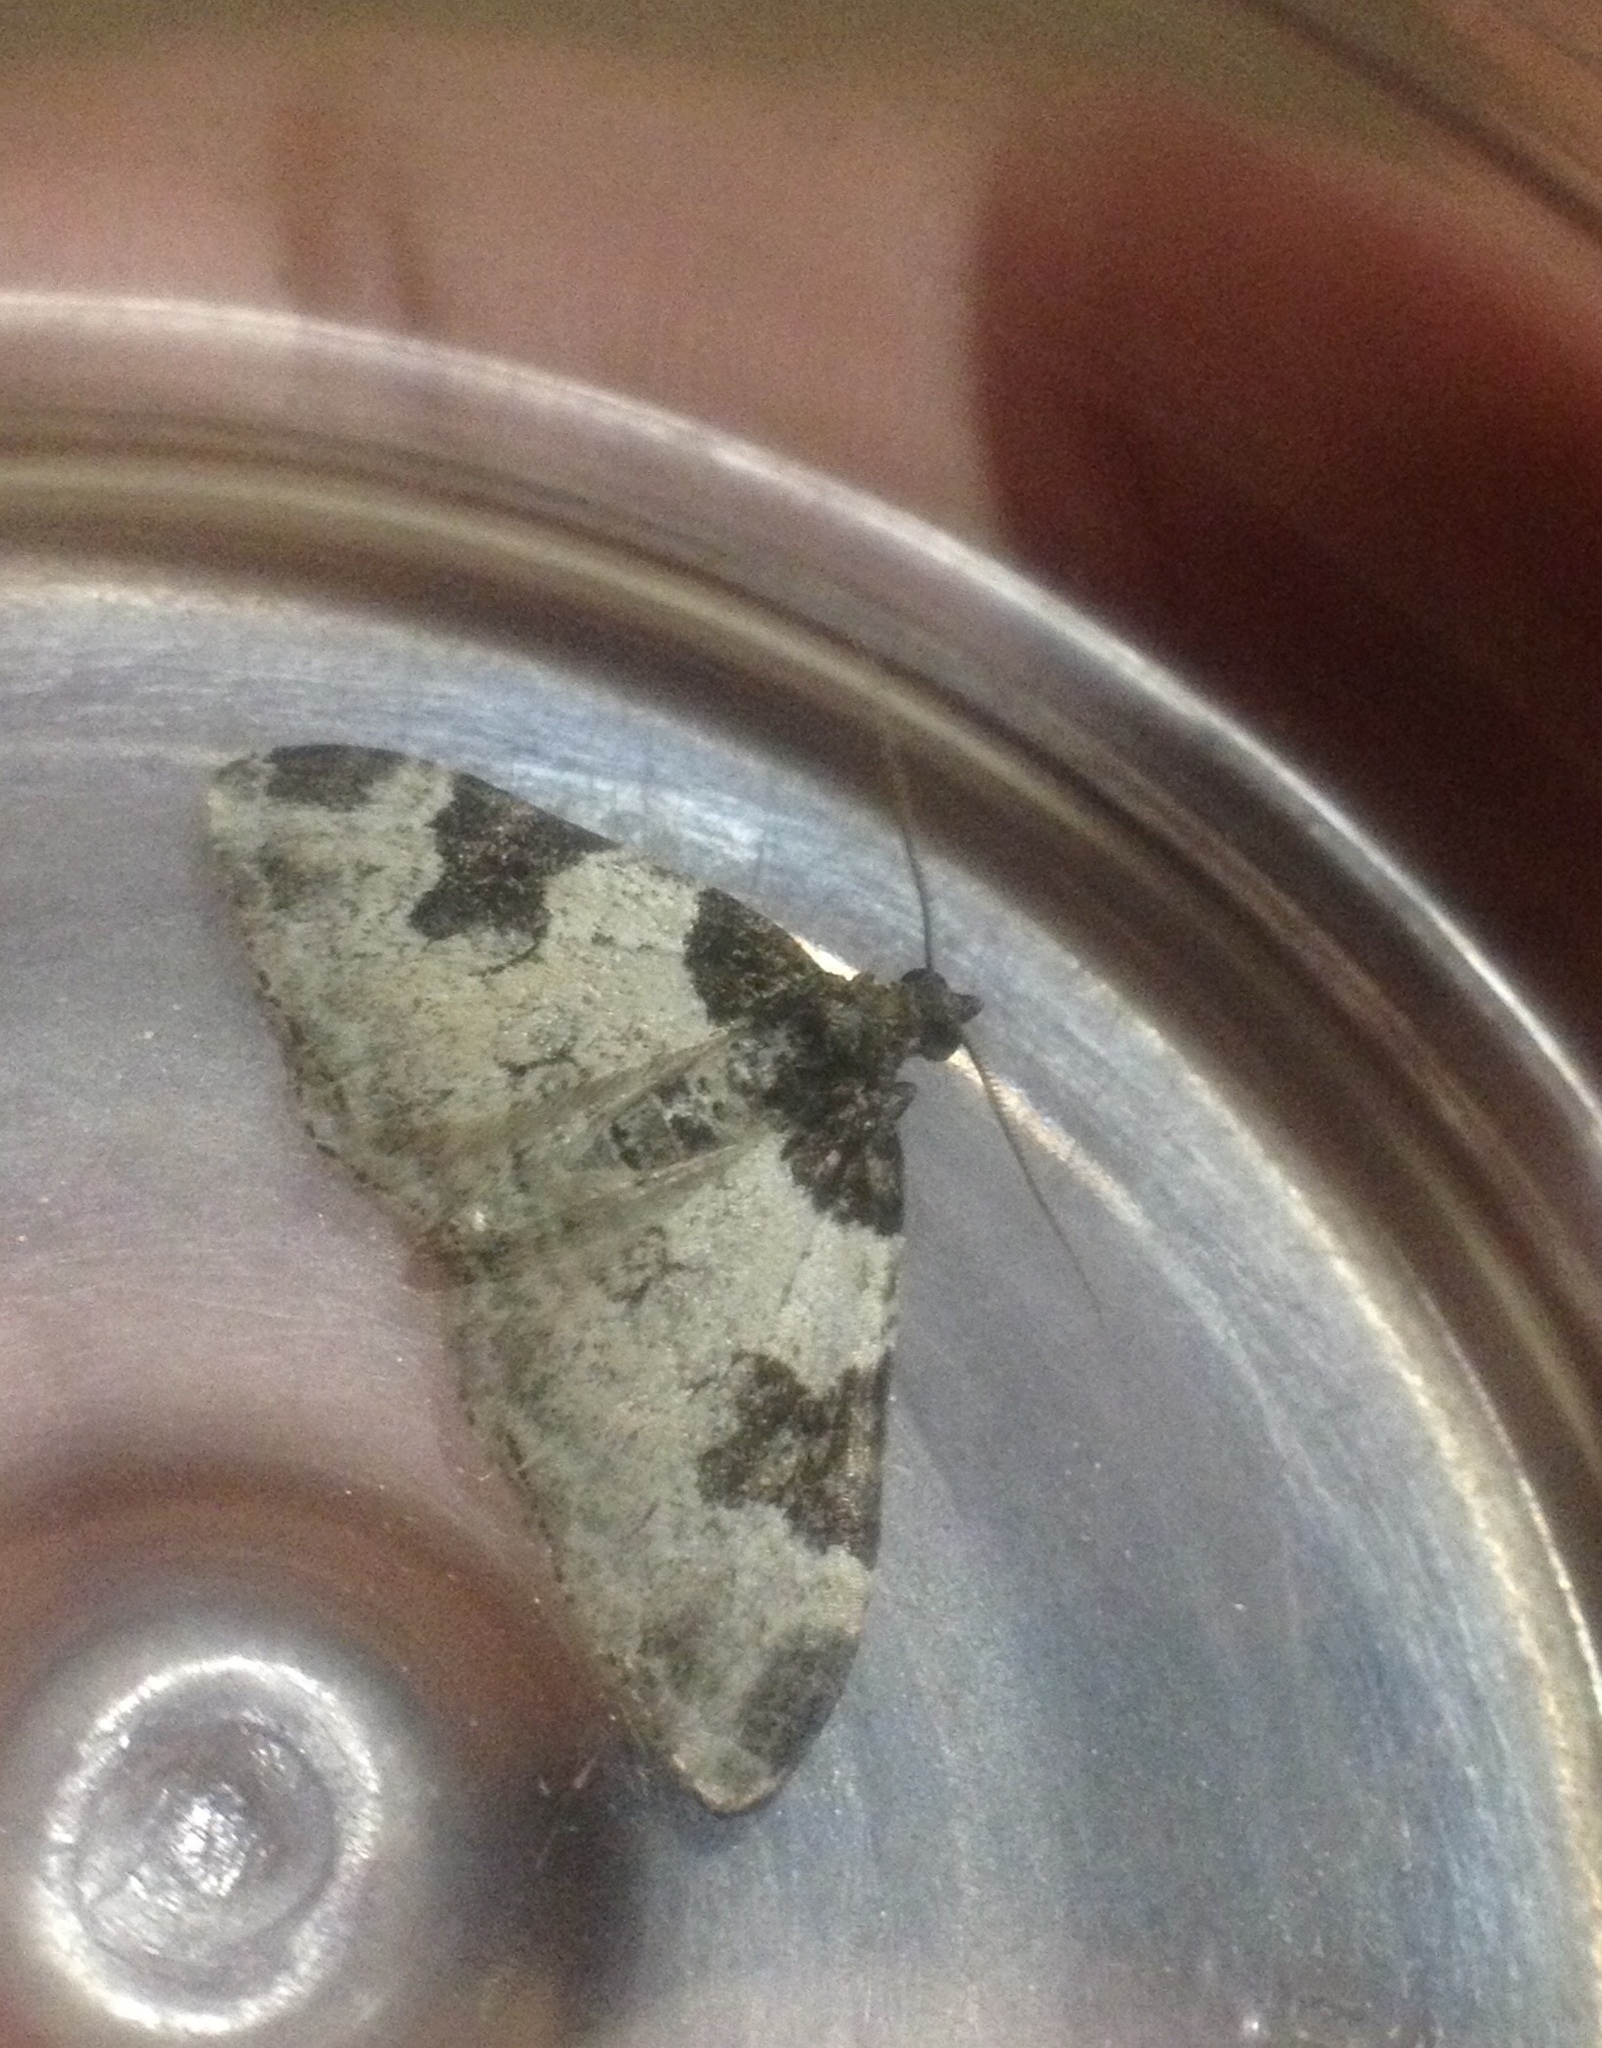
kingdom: Animalia
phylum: Arthropoda
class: Insecta
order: Lepidoptera
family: Geometridae
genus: Xanthorhoe
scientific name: Xanthorhoe fluctuata
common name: Garden carpet
